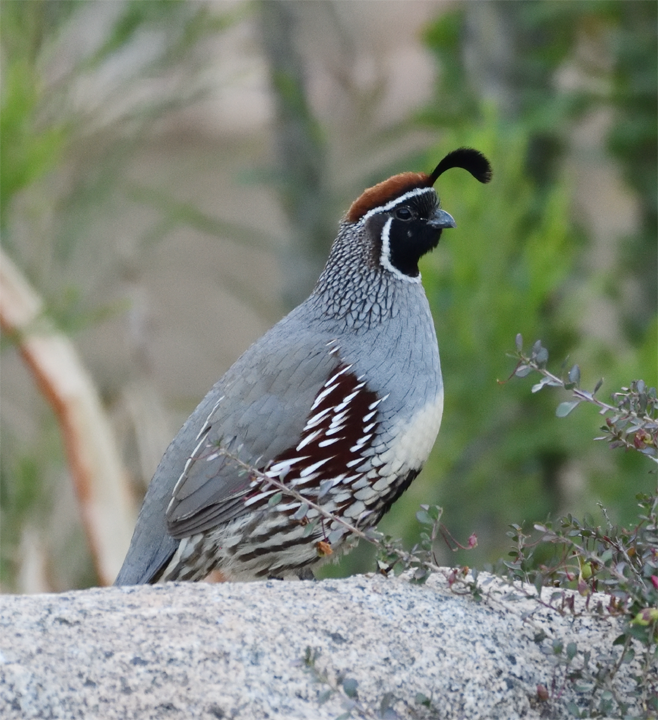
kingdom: Animalia
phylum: Chordata
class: Aves
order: Galliformes
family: Odontophoridae
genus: Callipepla
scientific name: Callipepla gambelii
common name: Gambel's quail
